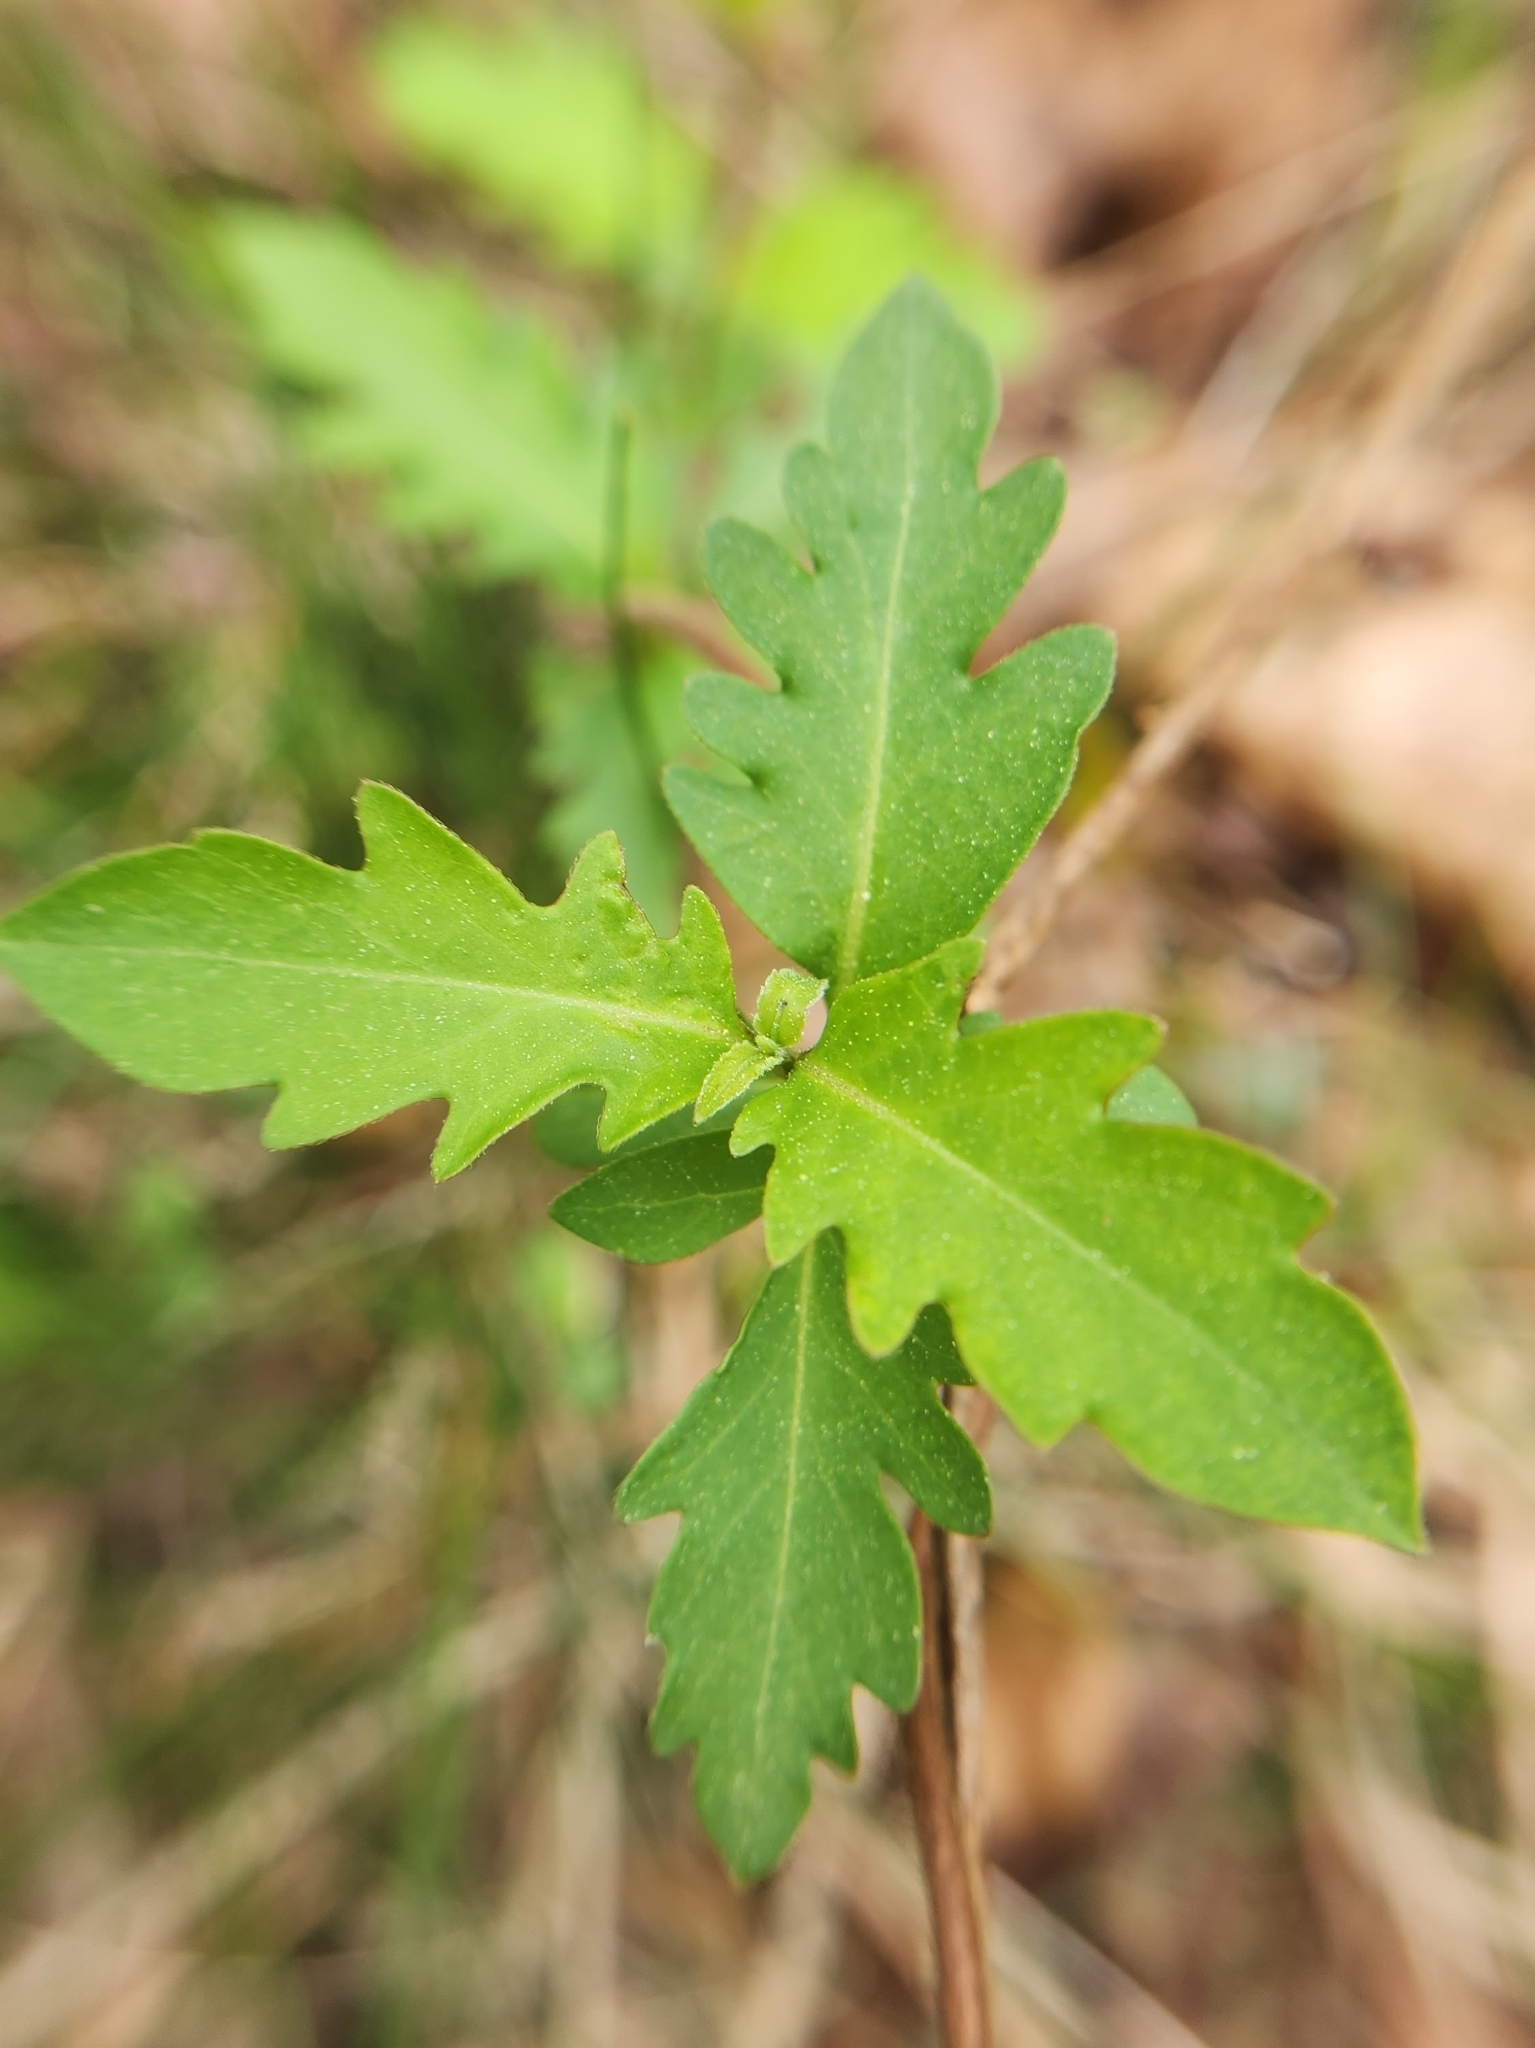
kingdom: Plantae
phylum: Tracheophyta
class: Magnoliopsida
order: Dipsacales
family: Caprifoliaceae
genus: Lonicera
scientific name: Lonicera japonica
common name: Japanese honeysuckle
